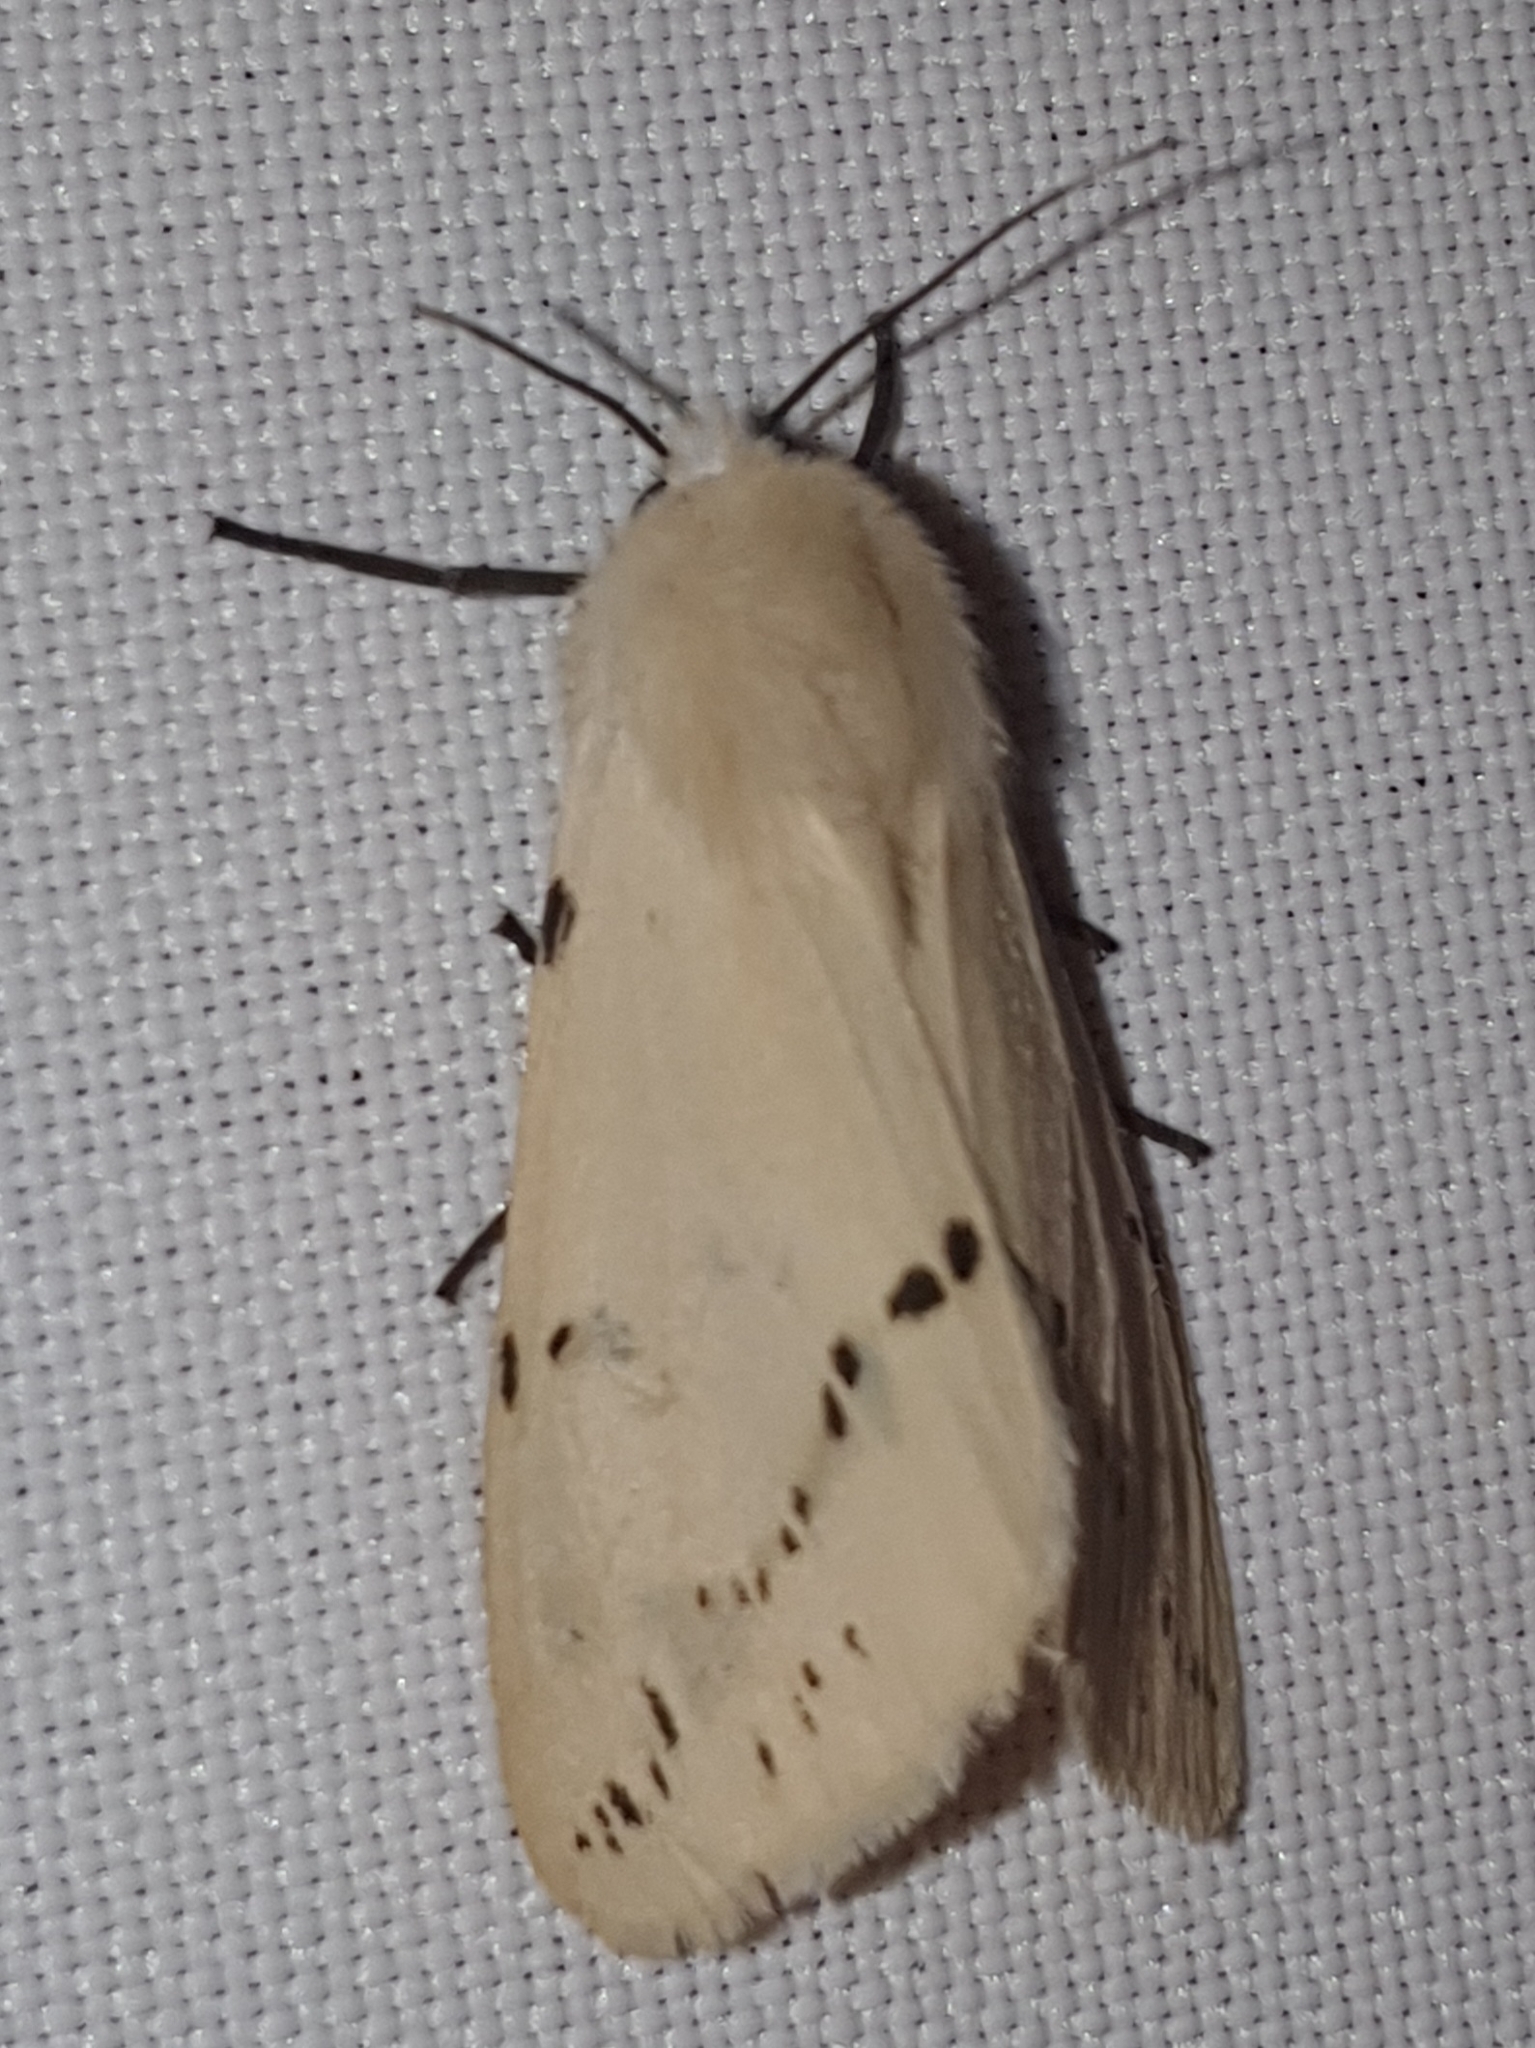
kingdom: Animalia
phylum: Arthropoda
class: Insecta
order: Lepidoptera
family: Erebidae
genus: Spilarctia
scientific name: Spilarctia lutea
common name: Buff ermine
